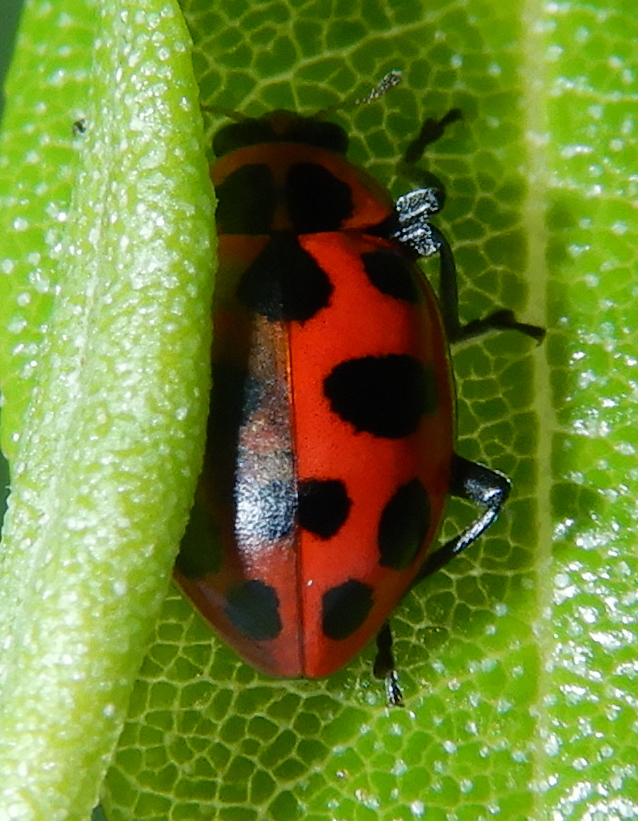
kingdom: Animalia
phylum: Arthropoda
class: Insecta
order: Coleoptera
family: Coccinellidae
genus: Coleomegilla
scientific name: Coleomegilla maculata
